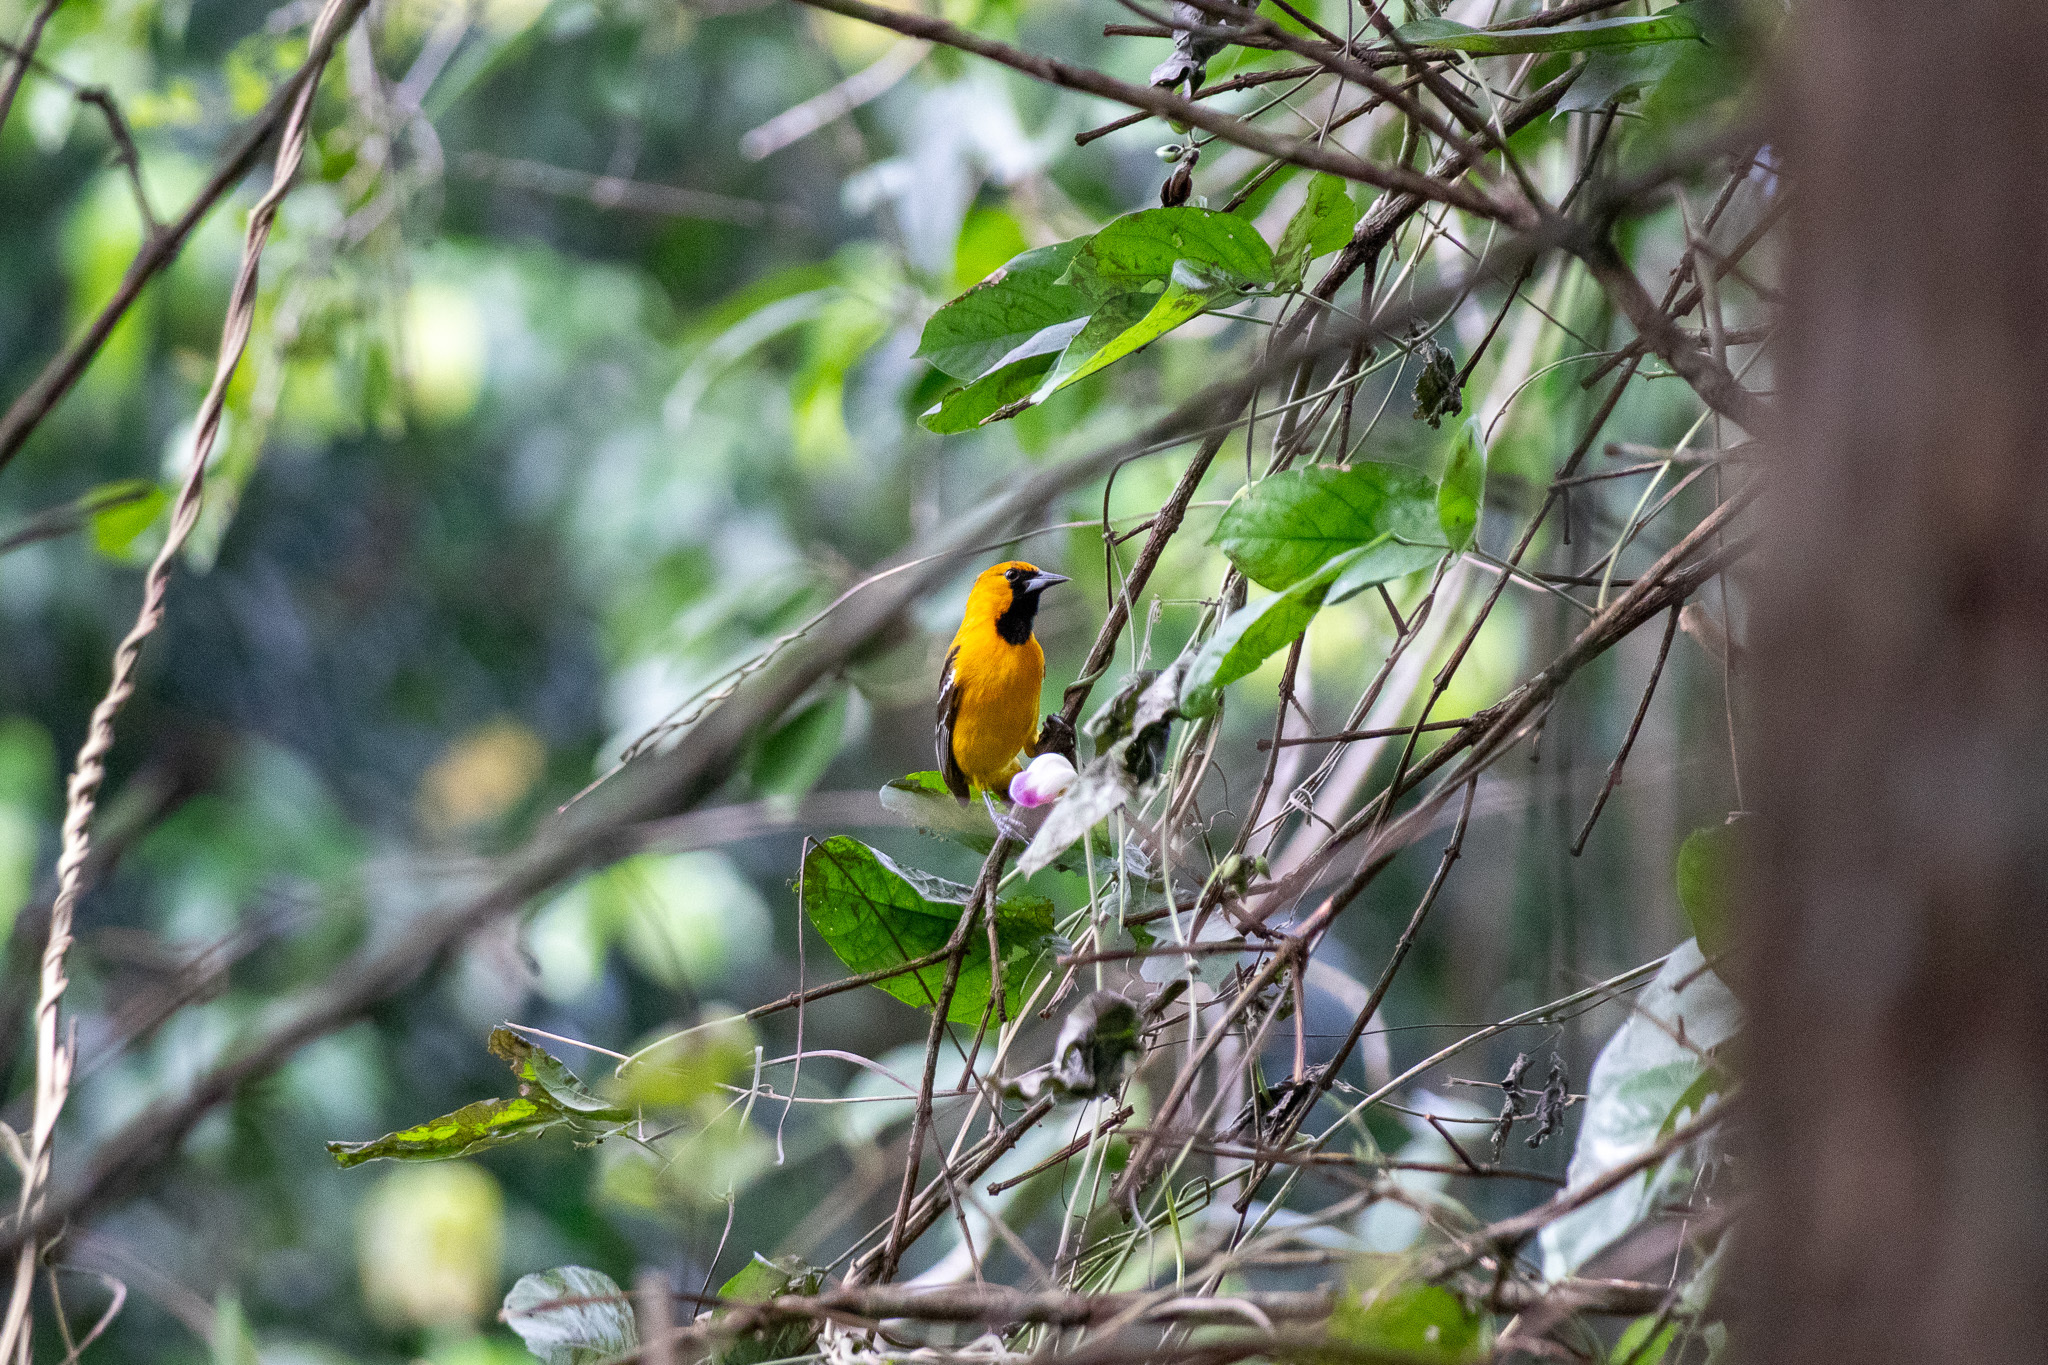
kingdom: Animalia
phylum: Chordata
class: Aves
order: Passeriformes
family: Icteridae
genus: Icterus
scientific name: Icterus auratus
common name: Orange oriole
